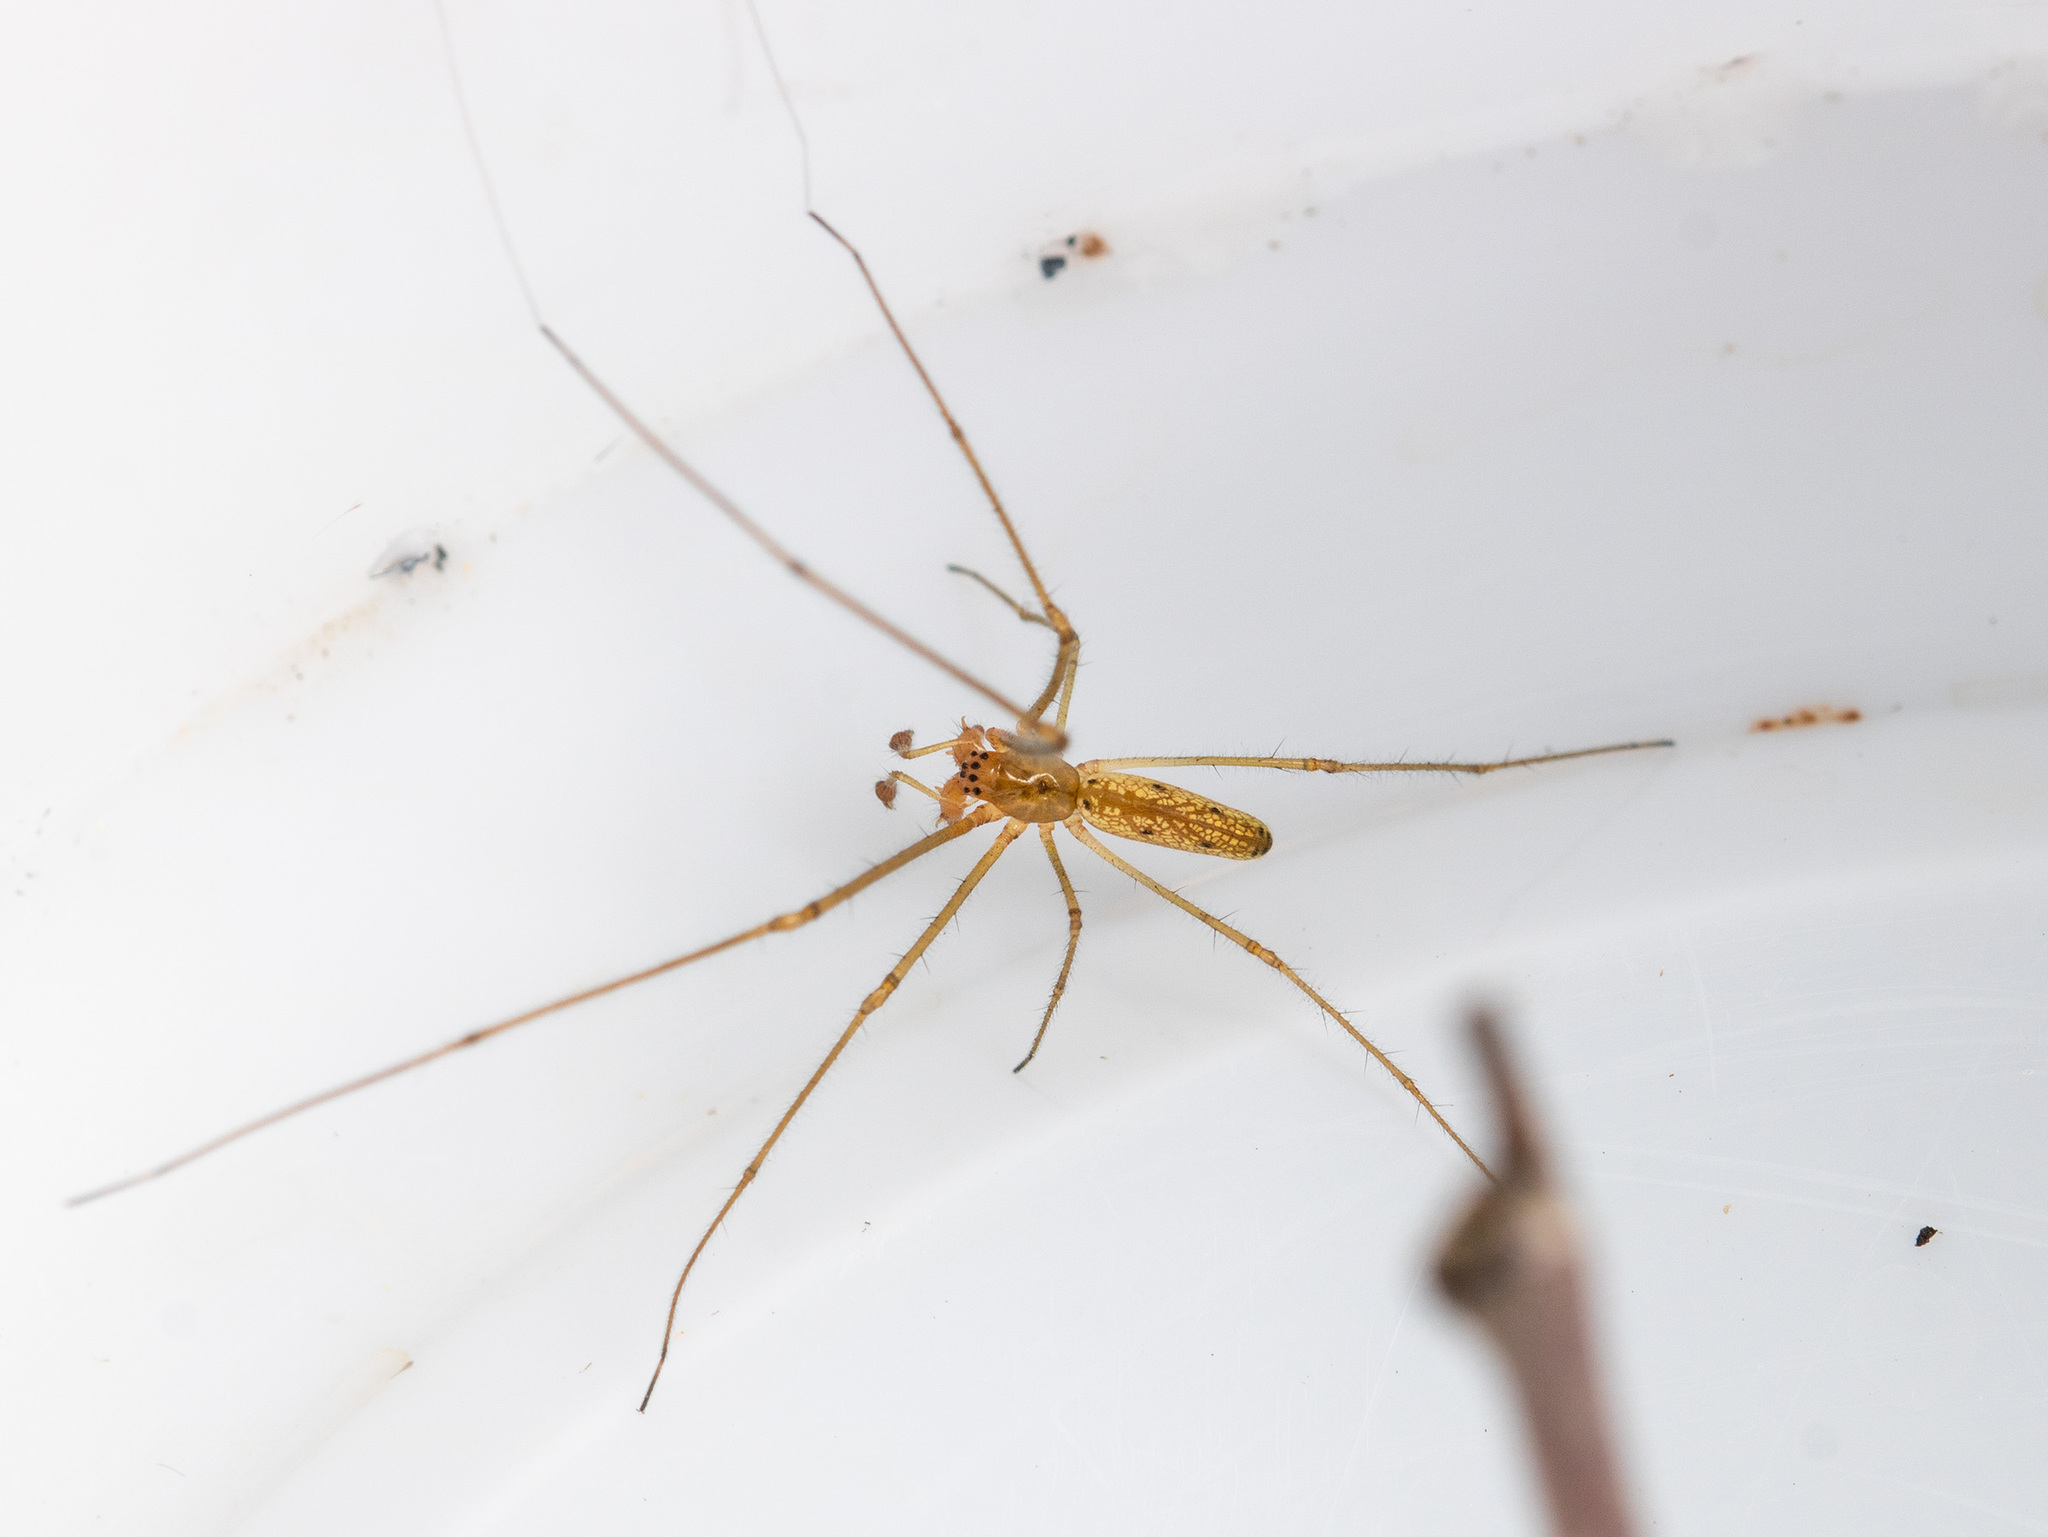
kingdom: Animalia
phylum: Arthropoda
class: Arachnida
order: Araneae
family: Tetragnathidae
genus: Tetragnatha
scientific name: Tetragnatha pinicola
